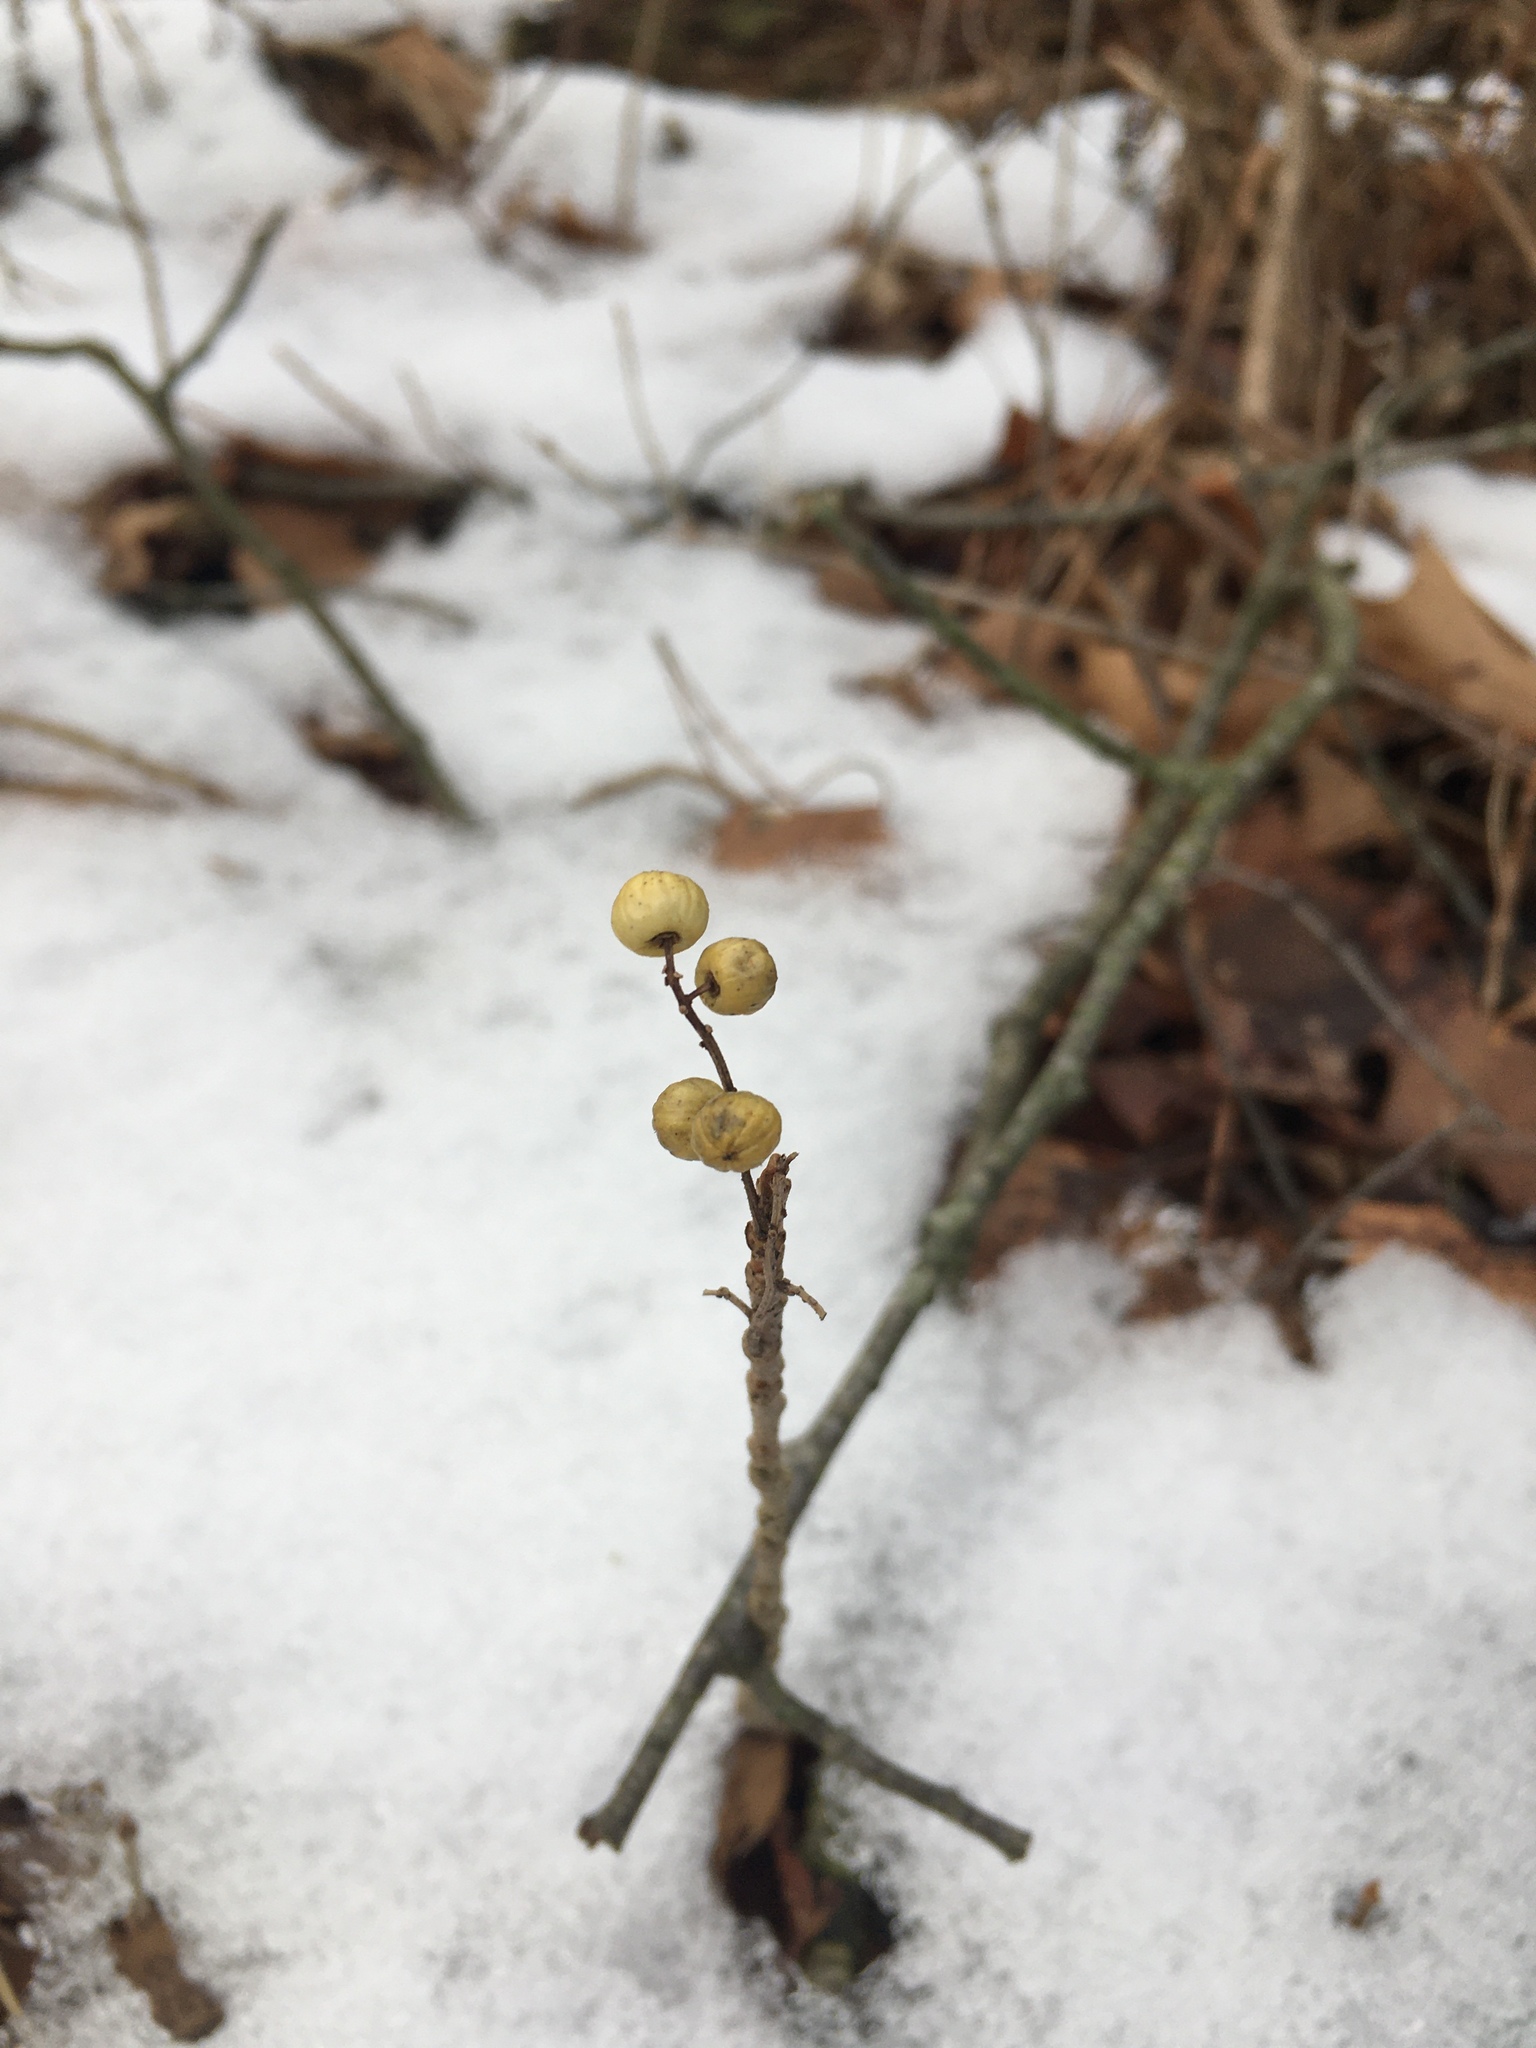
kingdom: Plantae
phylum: Tracheophyta
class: Magnoliopsida
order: Sapindales
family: Anacardiaceae
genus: Toxicodendron
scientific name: Toxicodendron rydbergii
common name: Rydberg's poison-ivy
